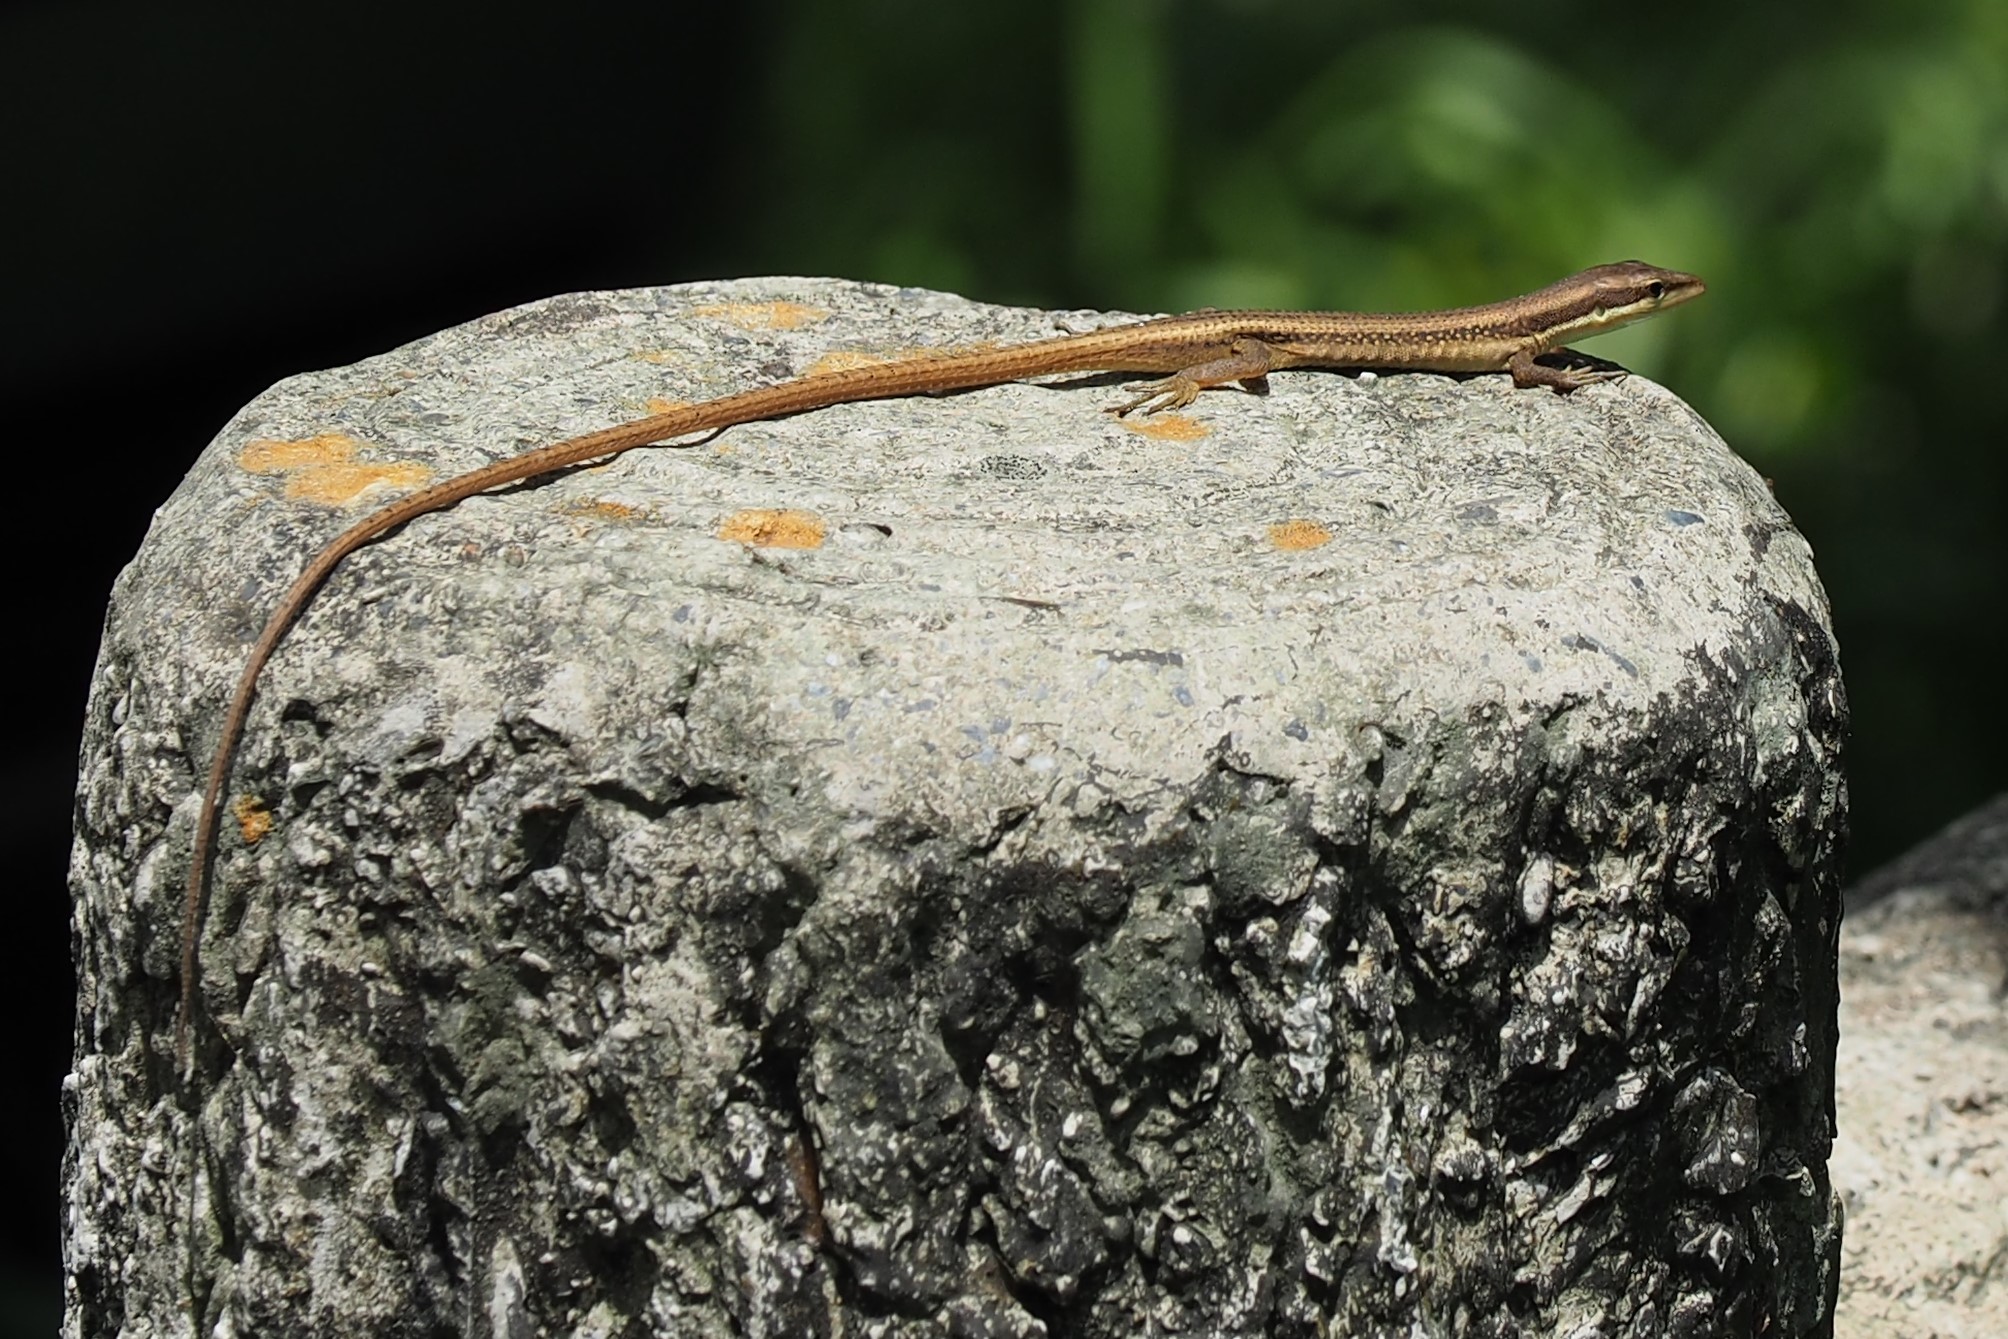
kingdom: Animalia
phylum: Chordata
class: Squamata
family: Lacertidae
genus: Takydromus
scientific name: Takydromus kuehnei
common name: Kuhne’s grass lizard
